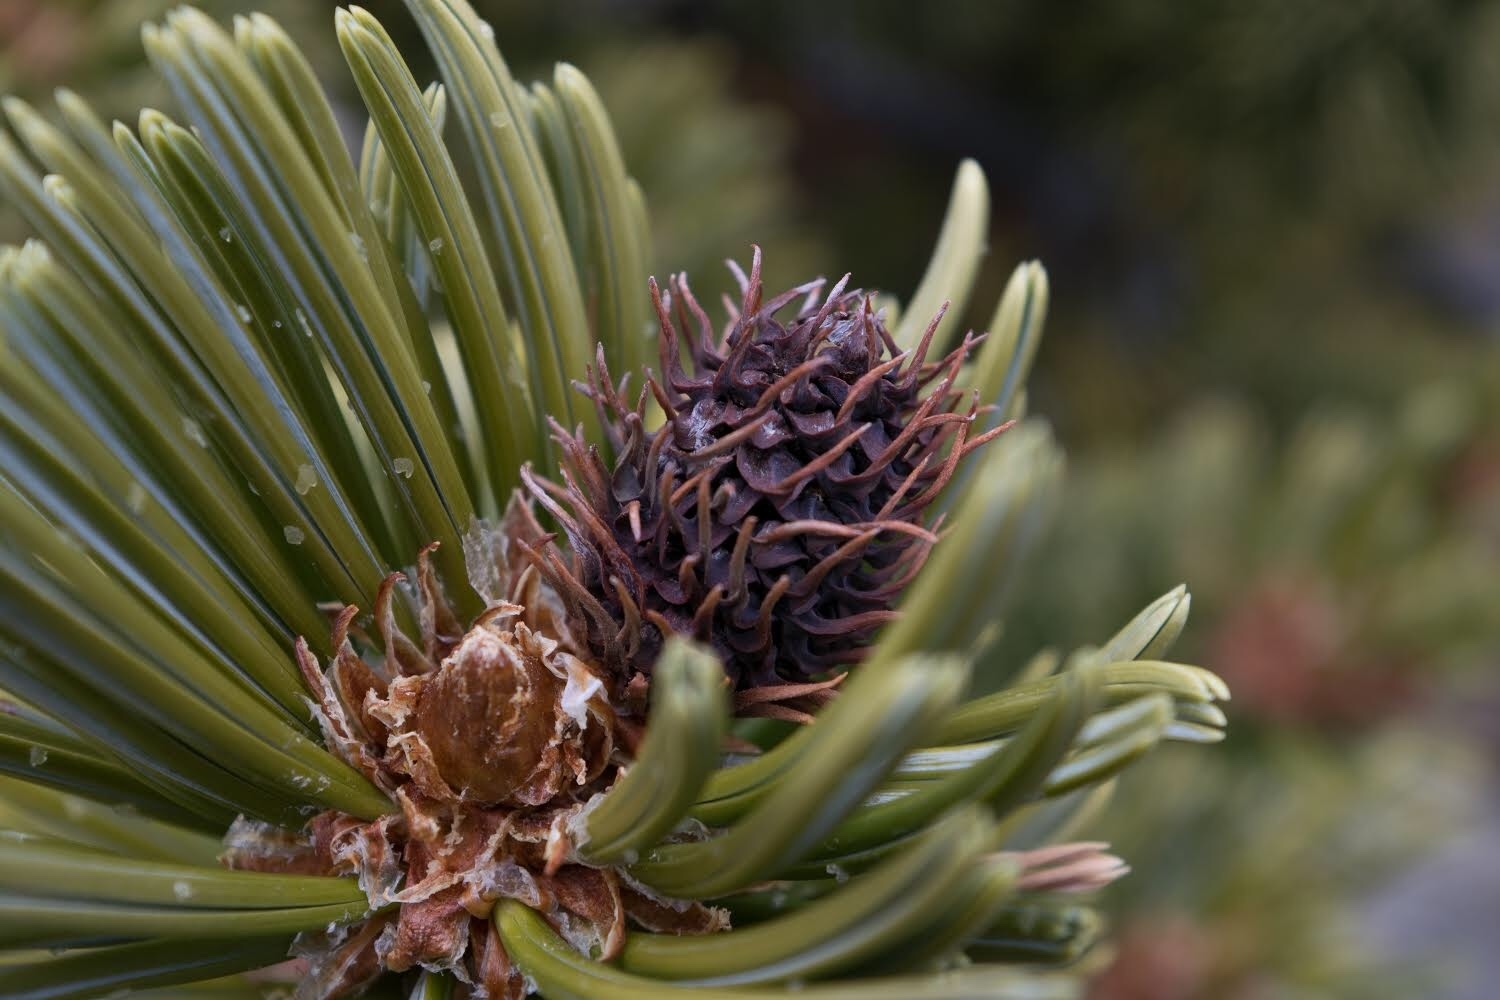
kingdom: Plantae
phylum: Tracheophyta
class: Pinopsida
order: Pinales
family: Pinaceae
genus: Pinus
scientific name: Pinus aristata
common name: Colorado bristlecone pine
